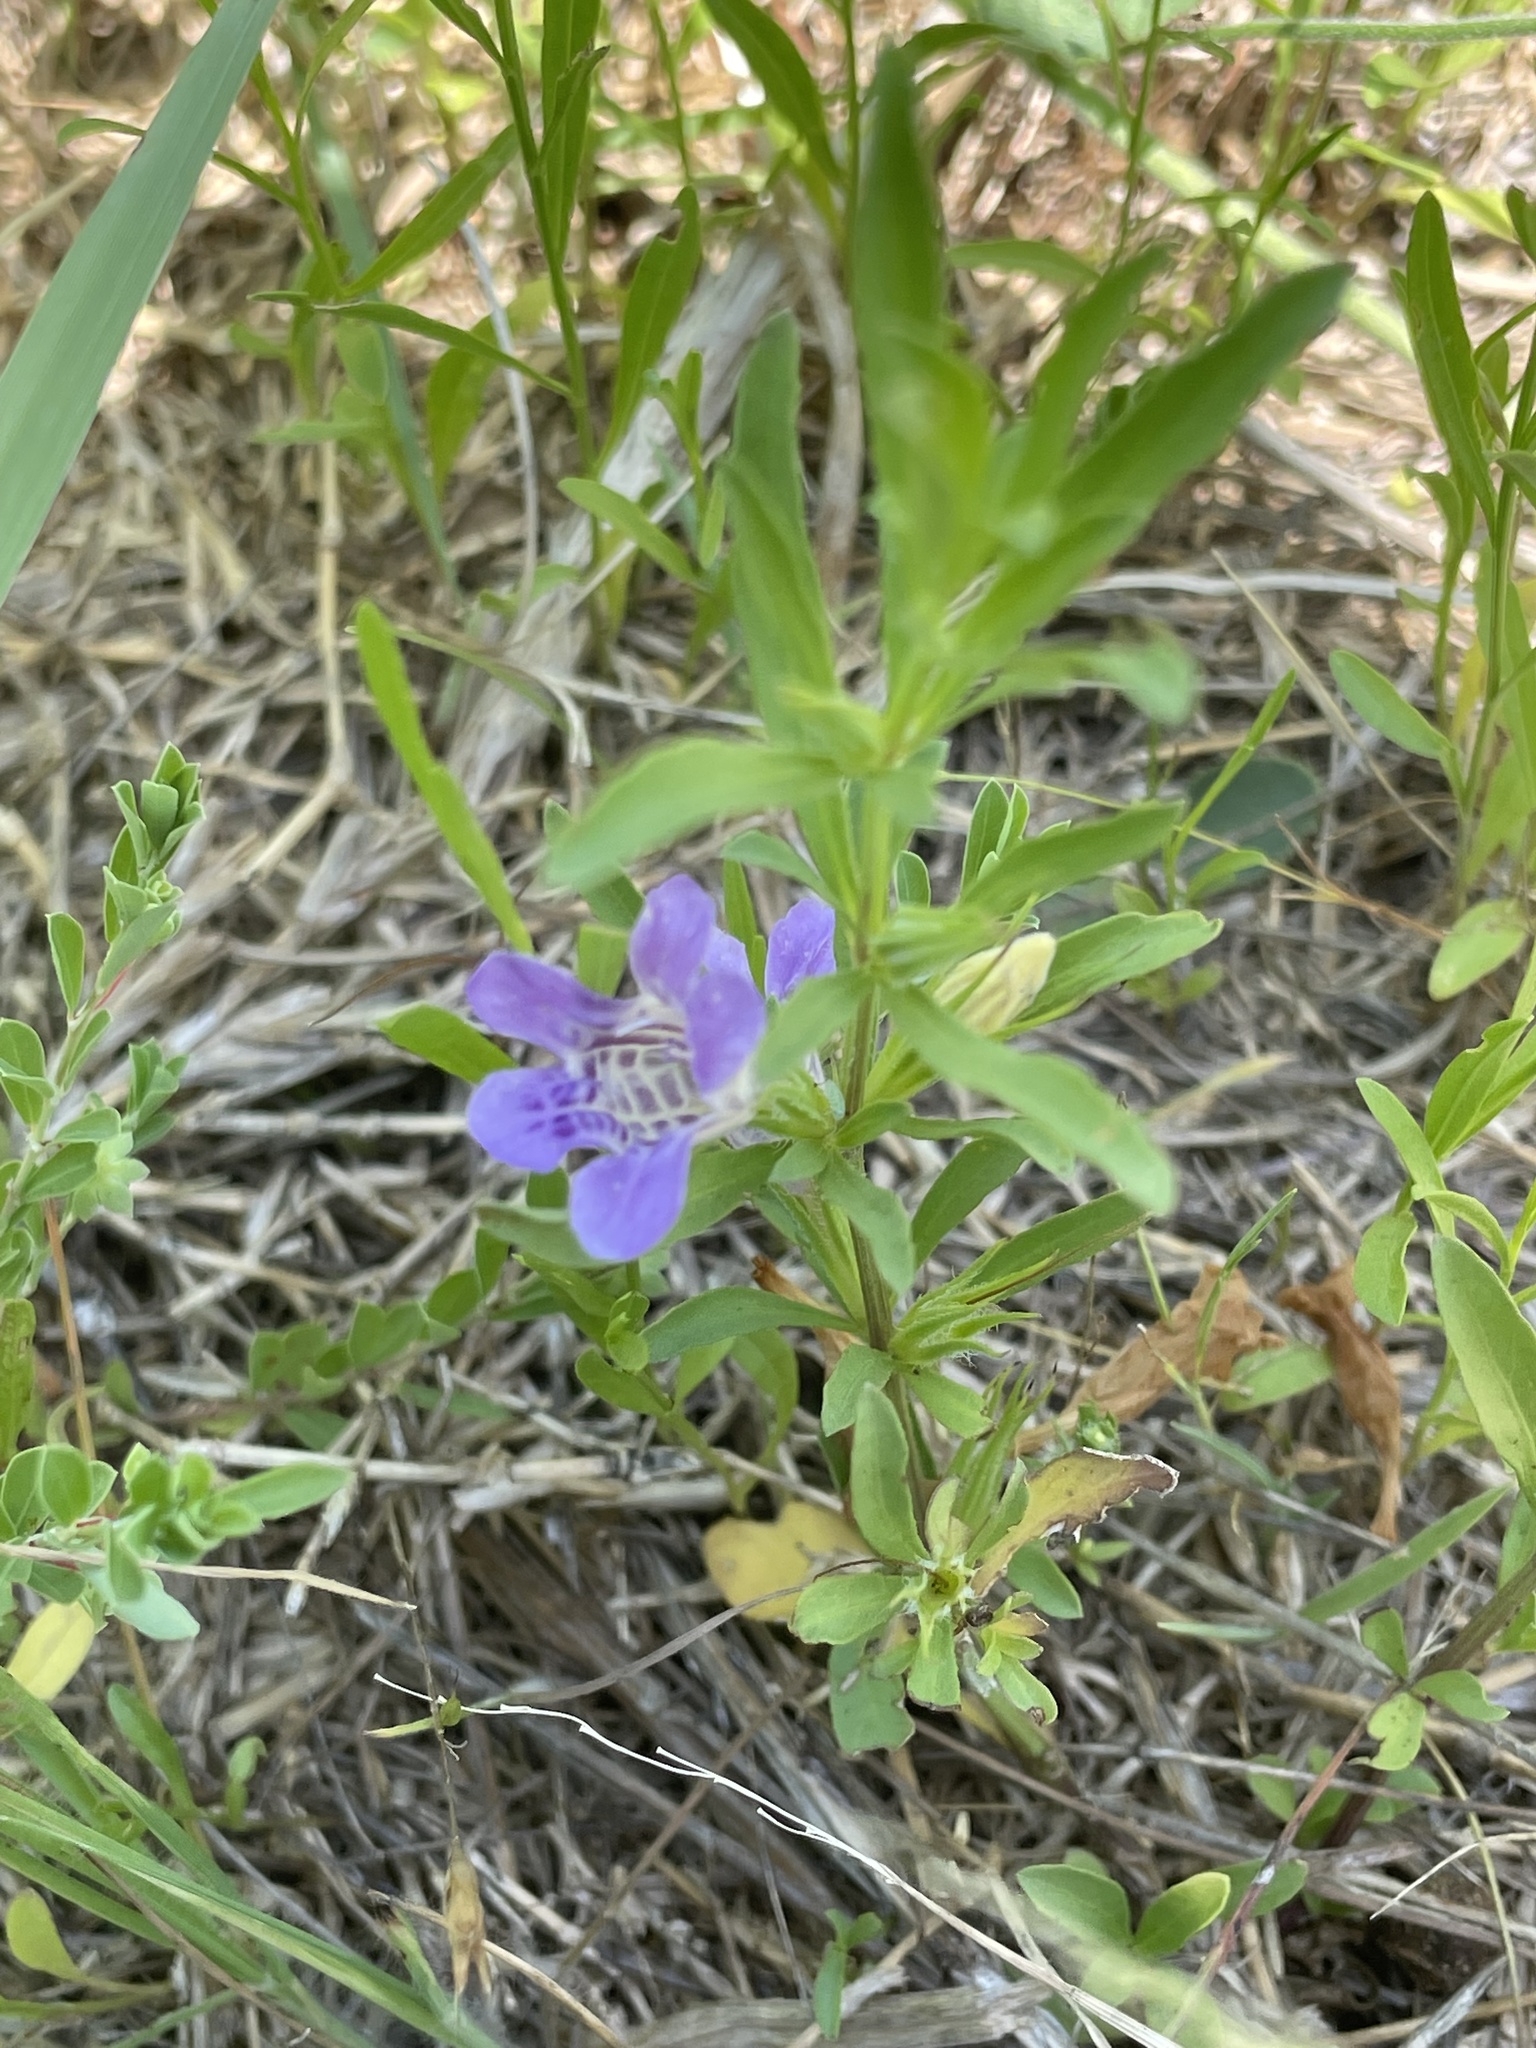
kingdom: Plantae
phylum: Tracheophyta
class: Magnoliopsida
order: Lamiales
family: Acanthaceae
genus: Dyschoriste
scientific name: Dyschoriste linearis
